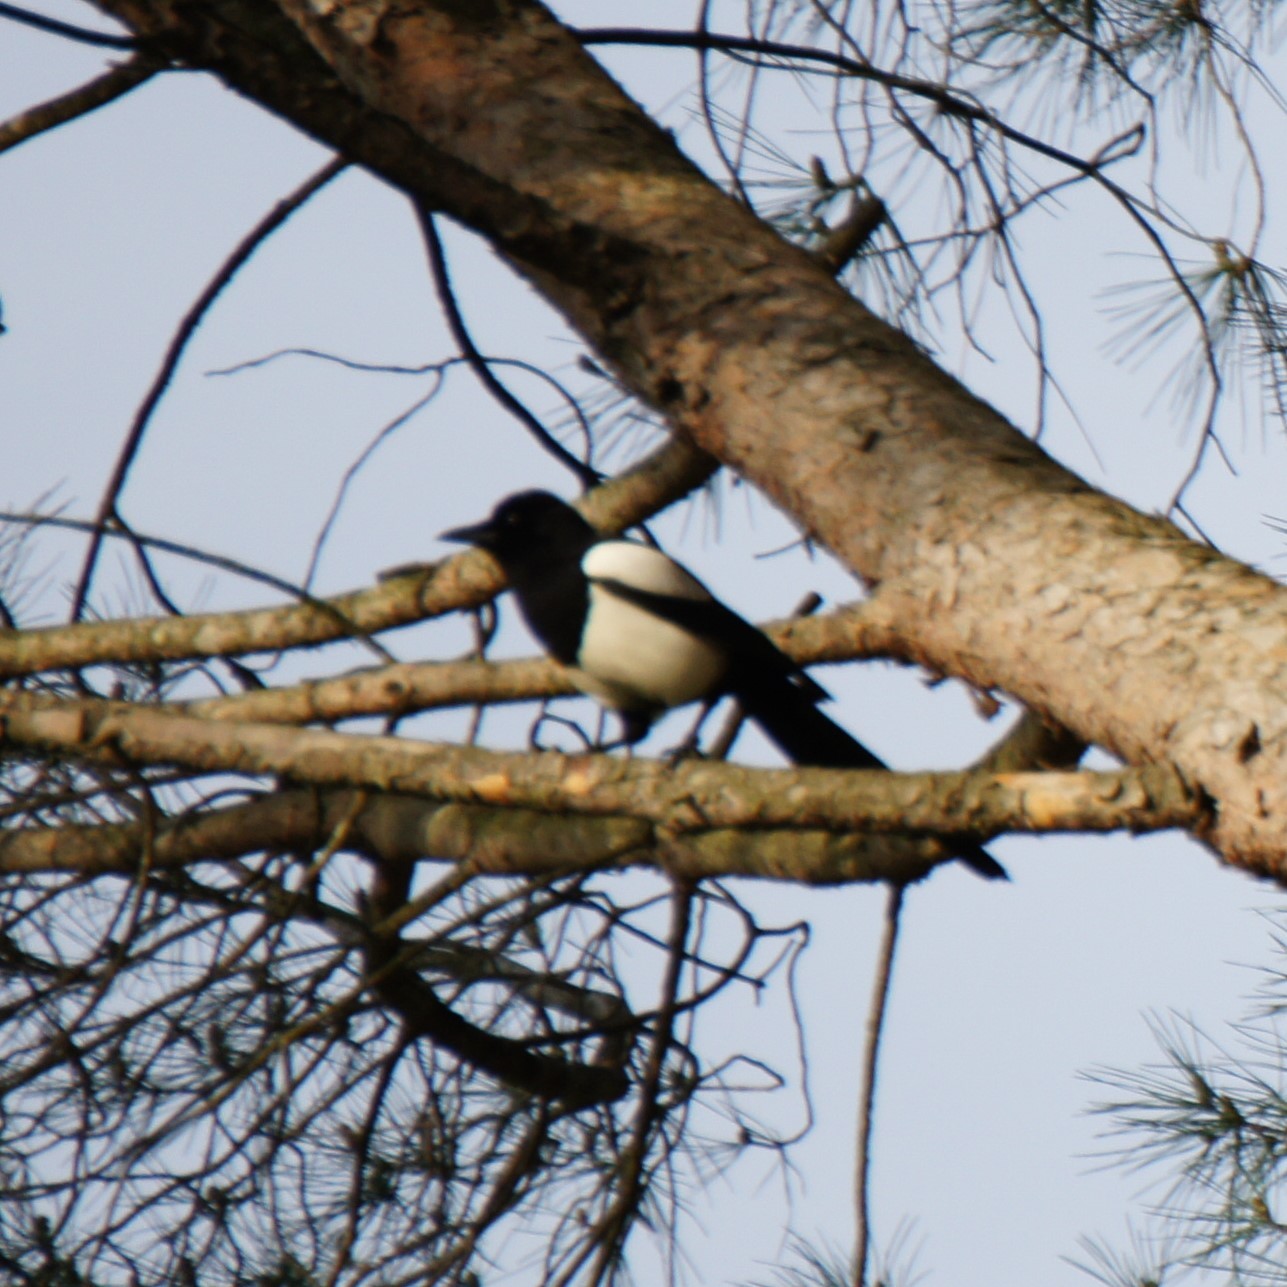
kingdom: Animalia
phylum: Chordata
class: Aves
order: Passeriformes
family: Corvidae
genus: Pica
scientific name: Pica pica
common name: Eurasian magpie
